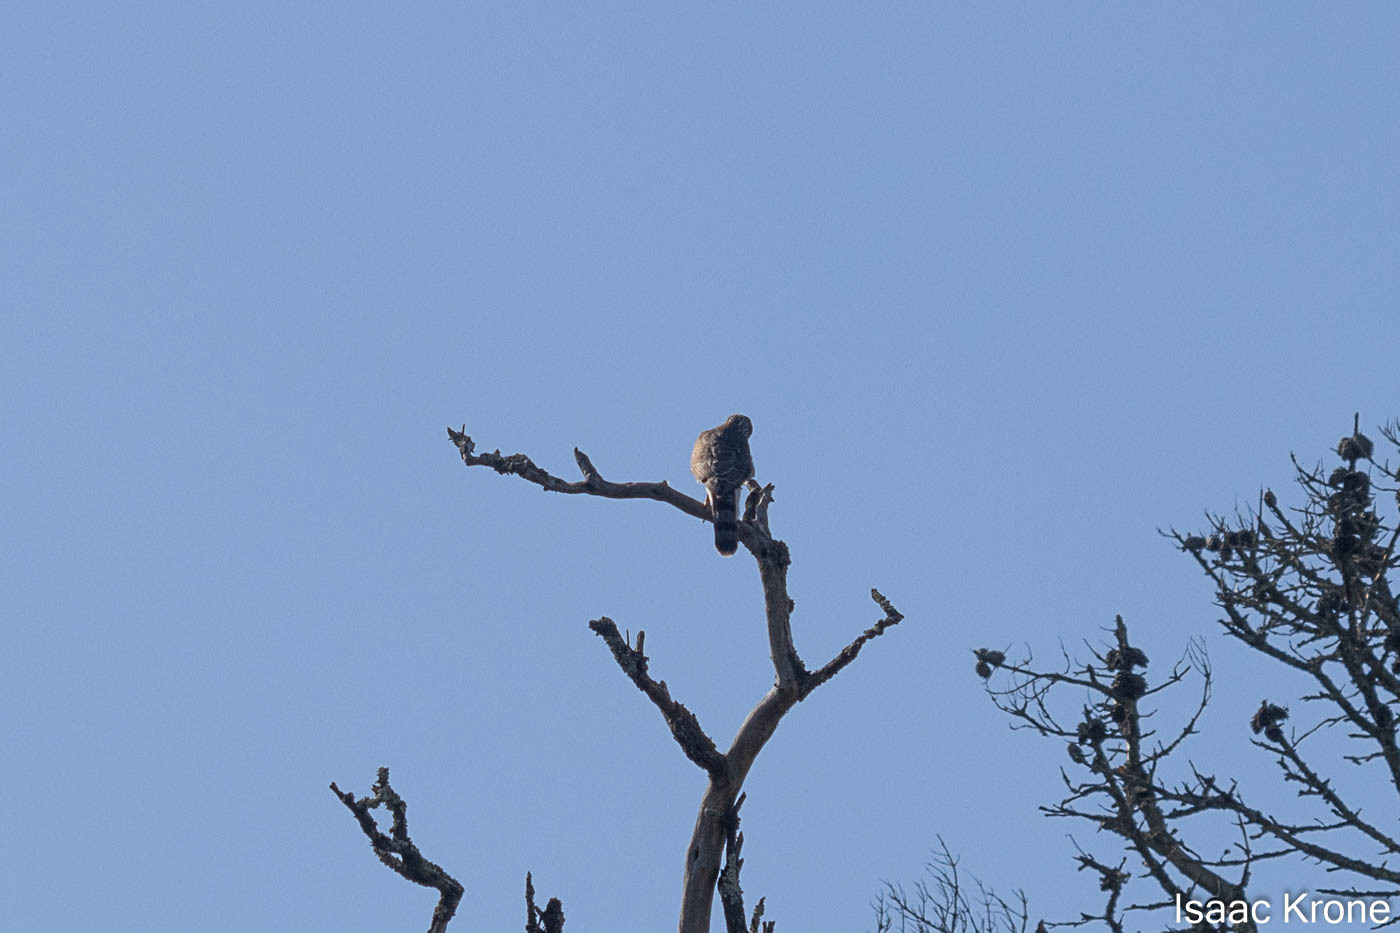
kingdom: Animalia
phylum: Chordata
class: Aves
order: Accipitriformes
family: Accipitridae
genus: Accipiter
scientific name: Accipiter cooperii
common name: Cooper's hawk
